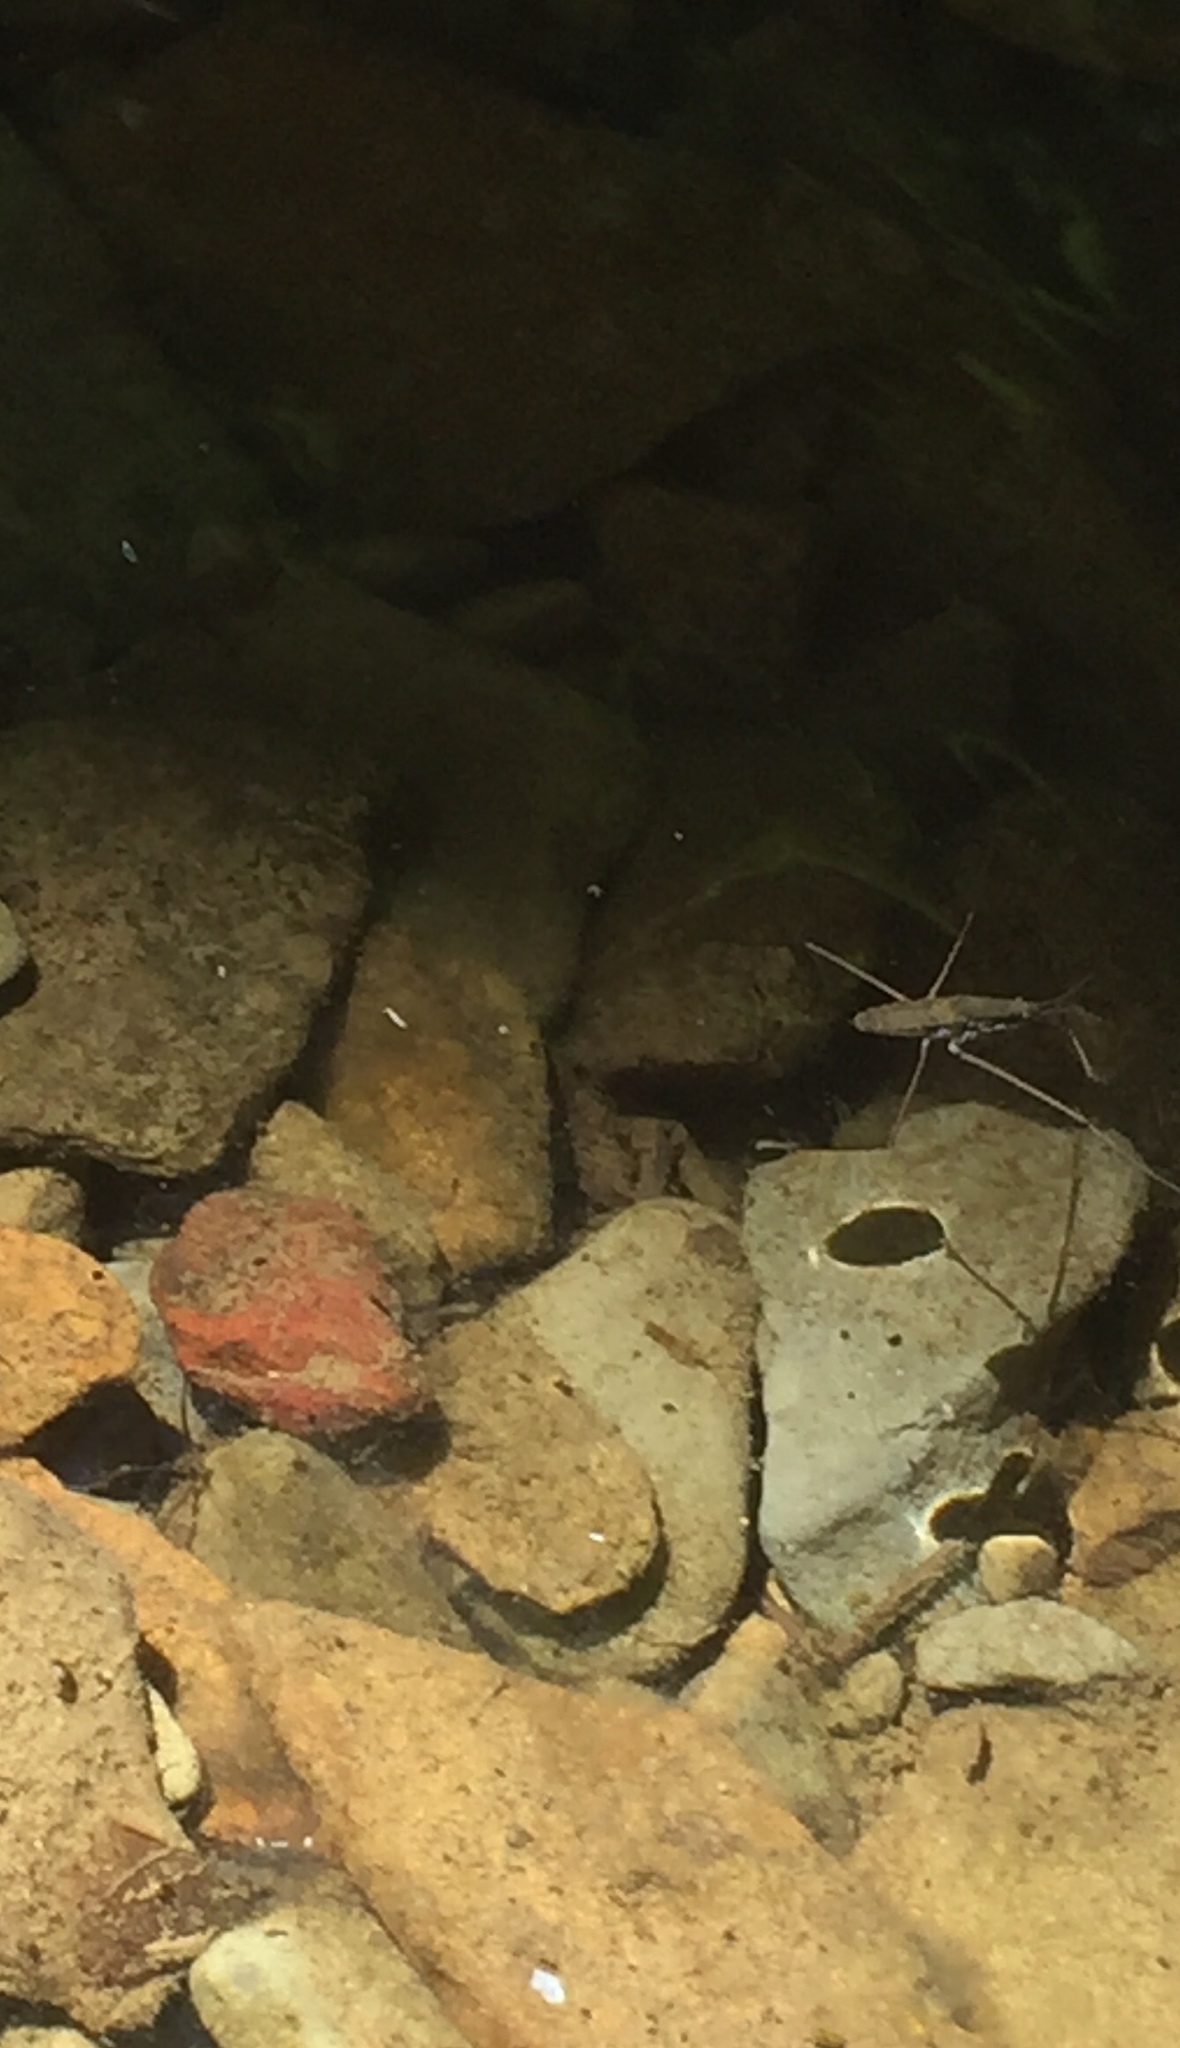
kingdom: Animalia
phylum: Arthropoda
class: Insecta
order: Hemiptera
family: Gerridae
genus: Aquarius
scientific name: Aquarius remigis
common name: Common water strider
